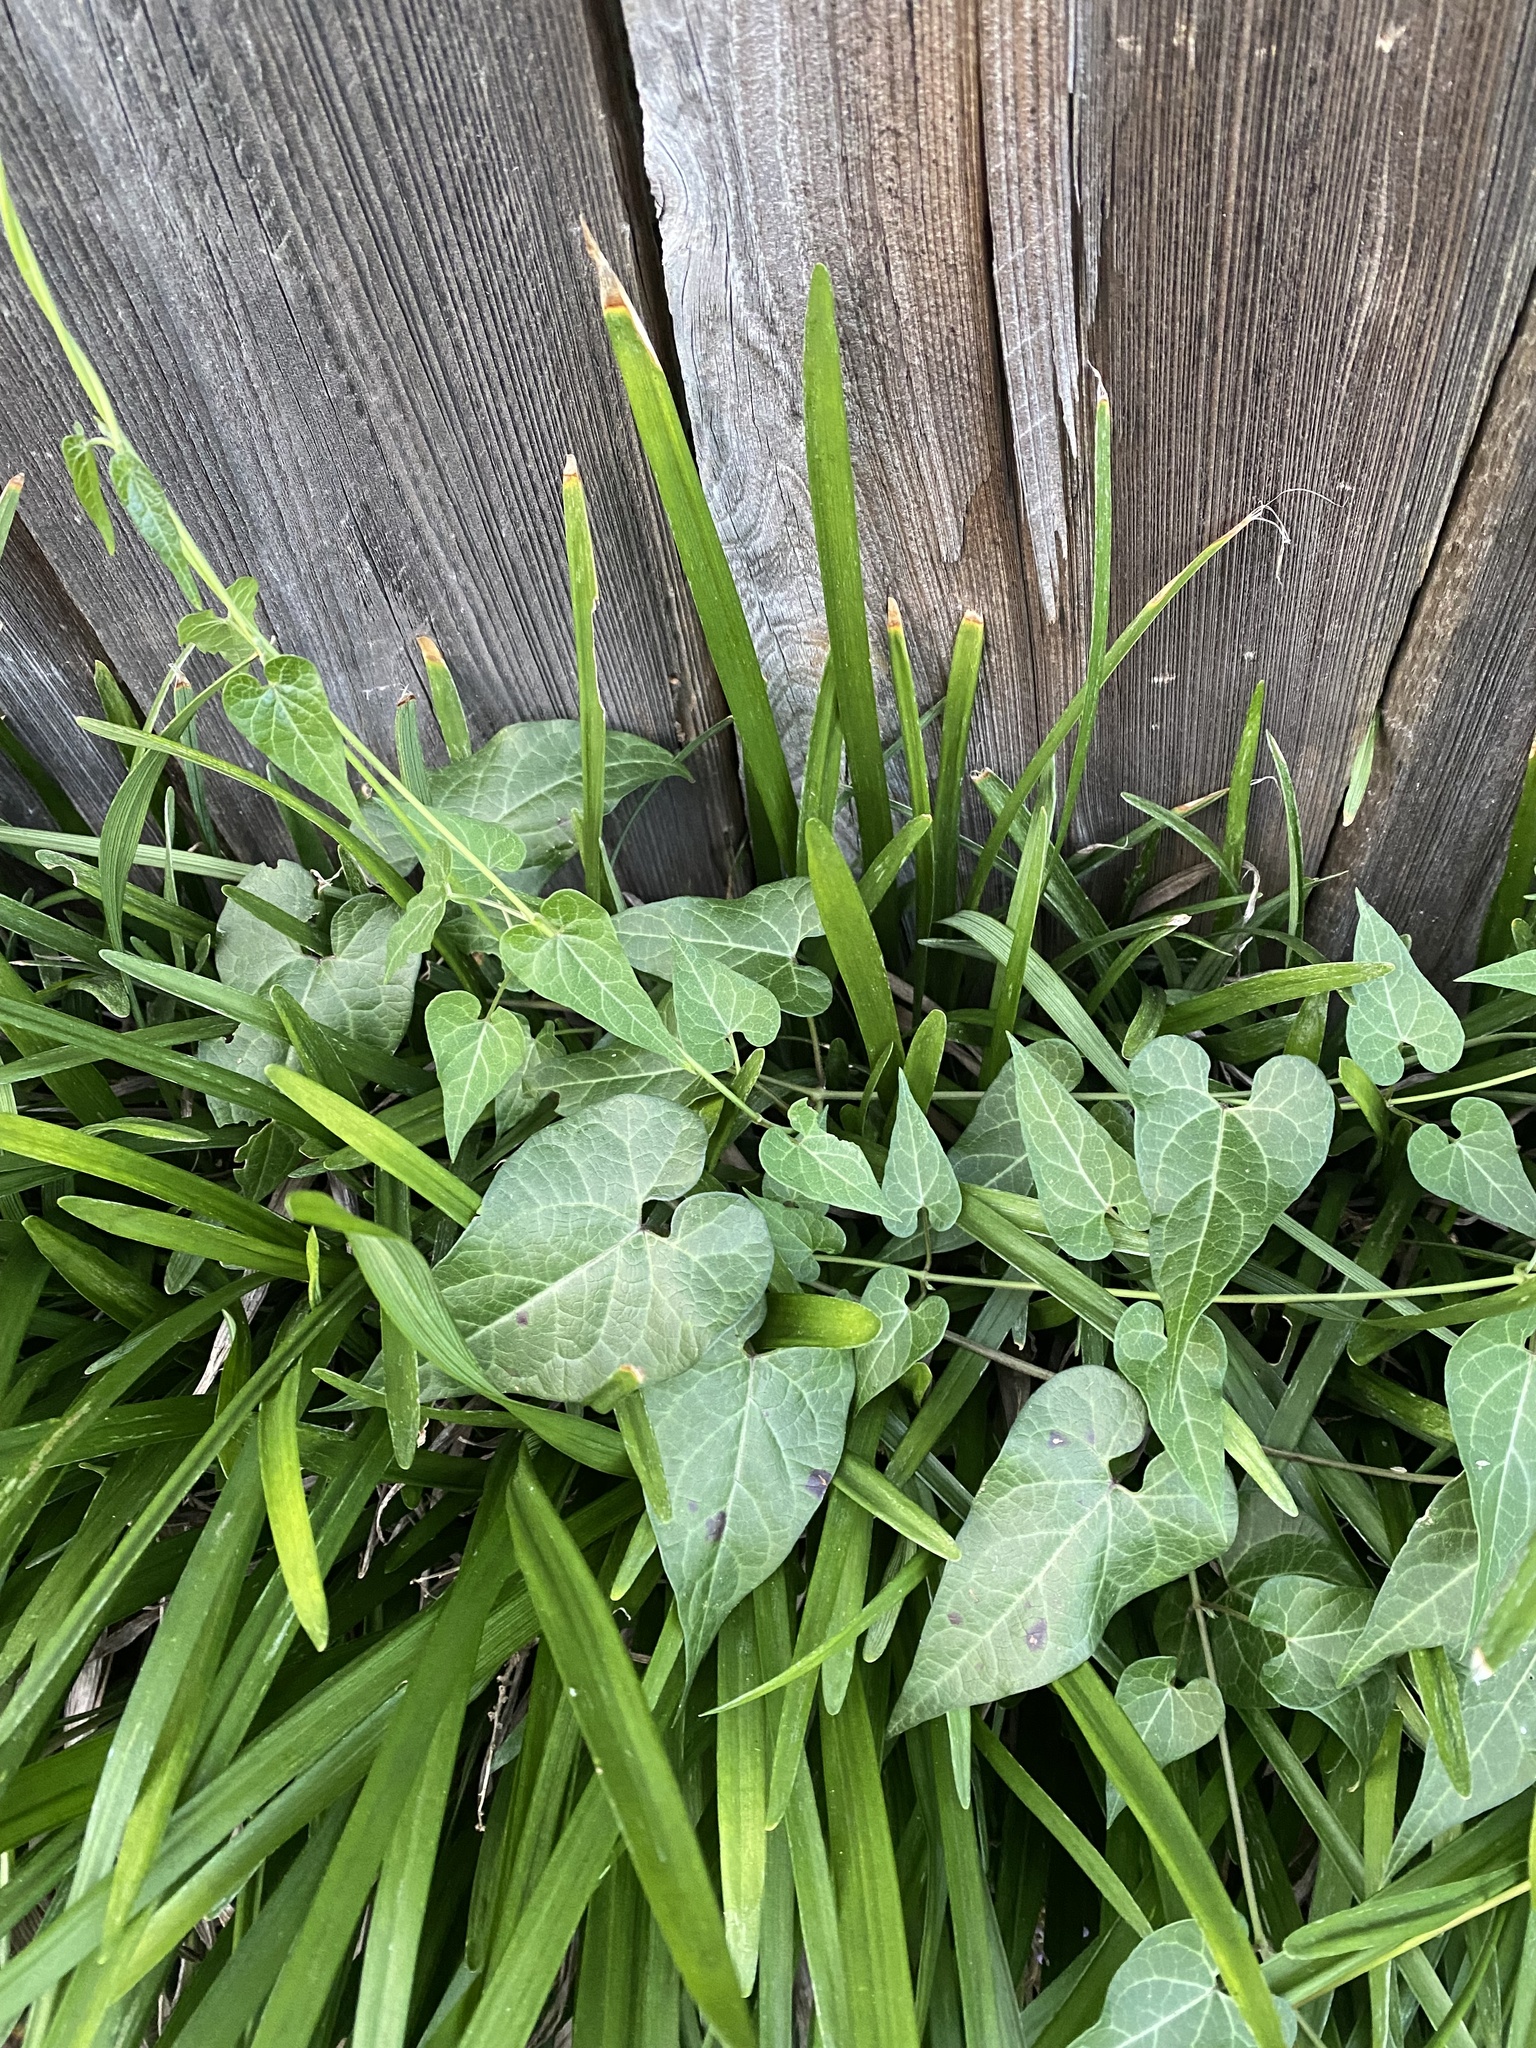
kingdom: Plantae
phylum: Tracheophyta
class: Magnoliopsida
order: Gentianales
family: Apocynaceae
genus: Cynanchum
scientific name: Cynanchum laeve
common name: Sandvine
